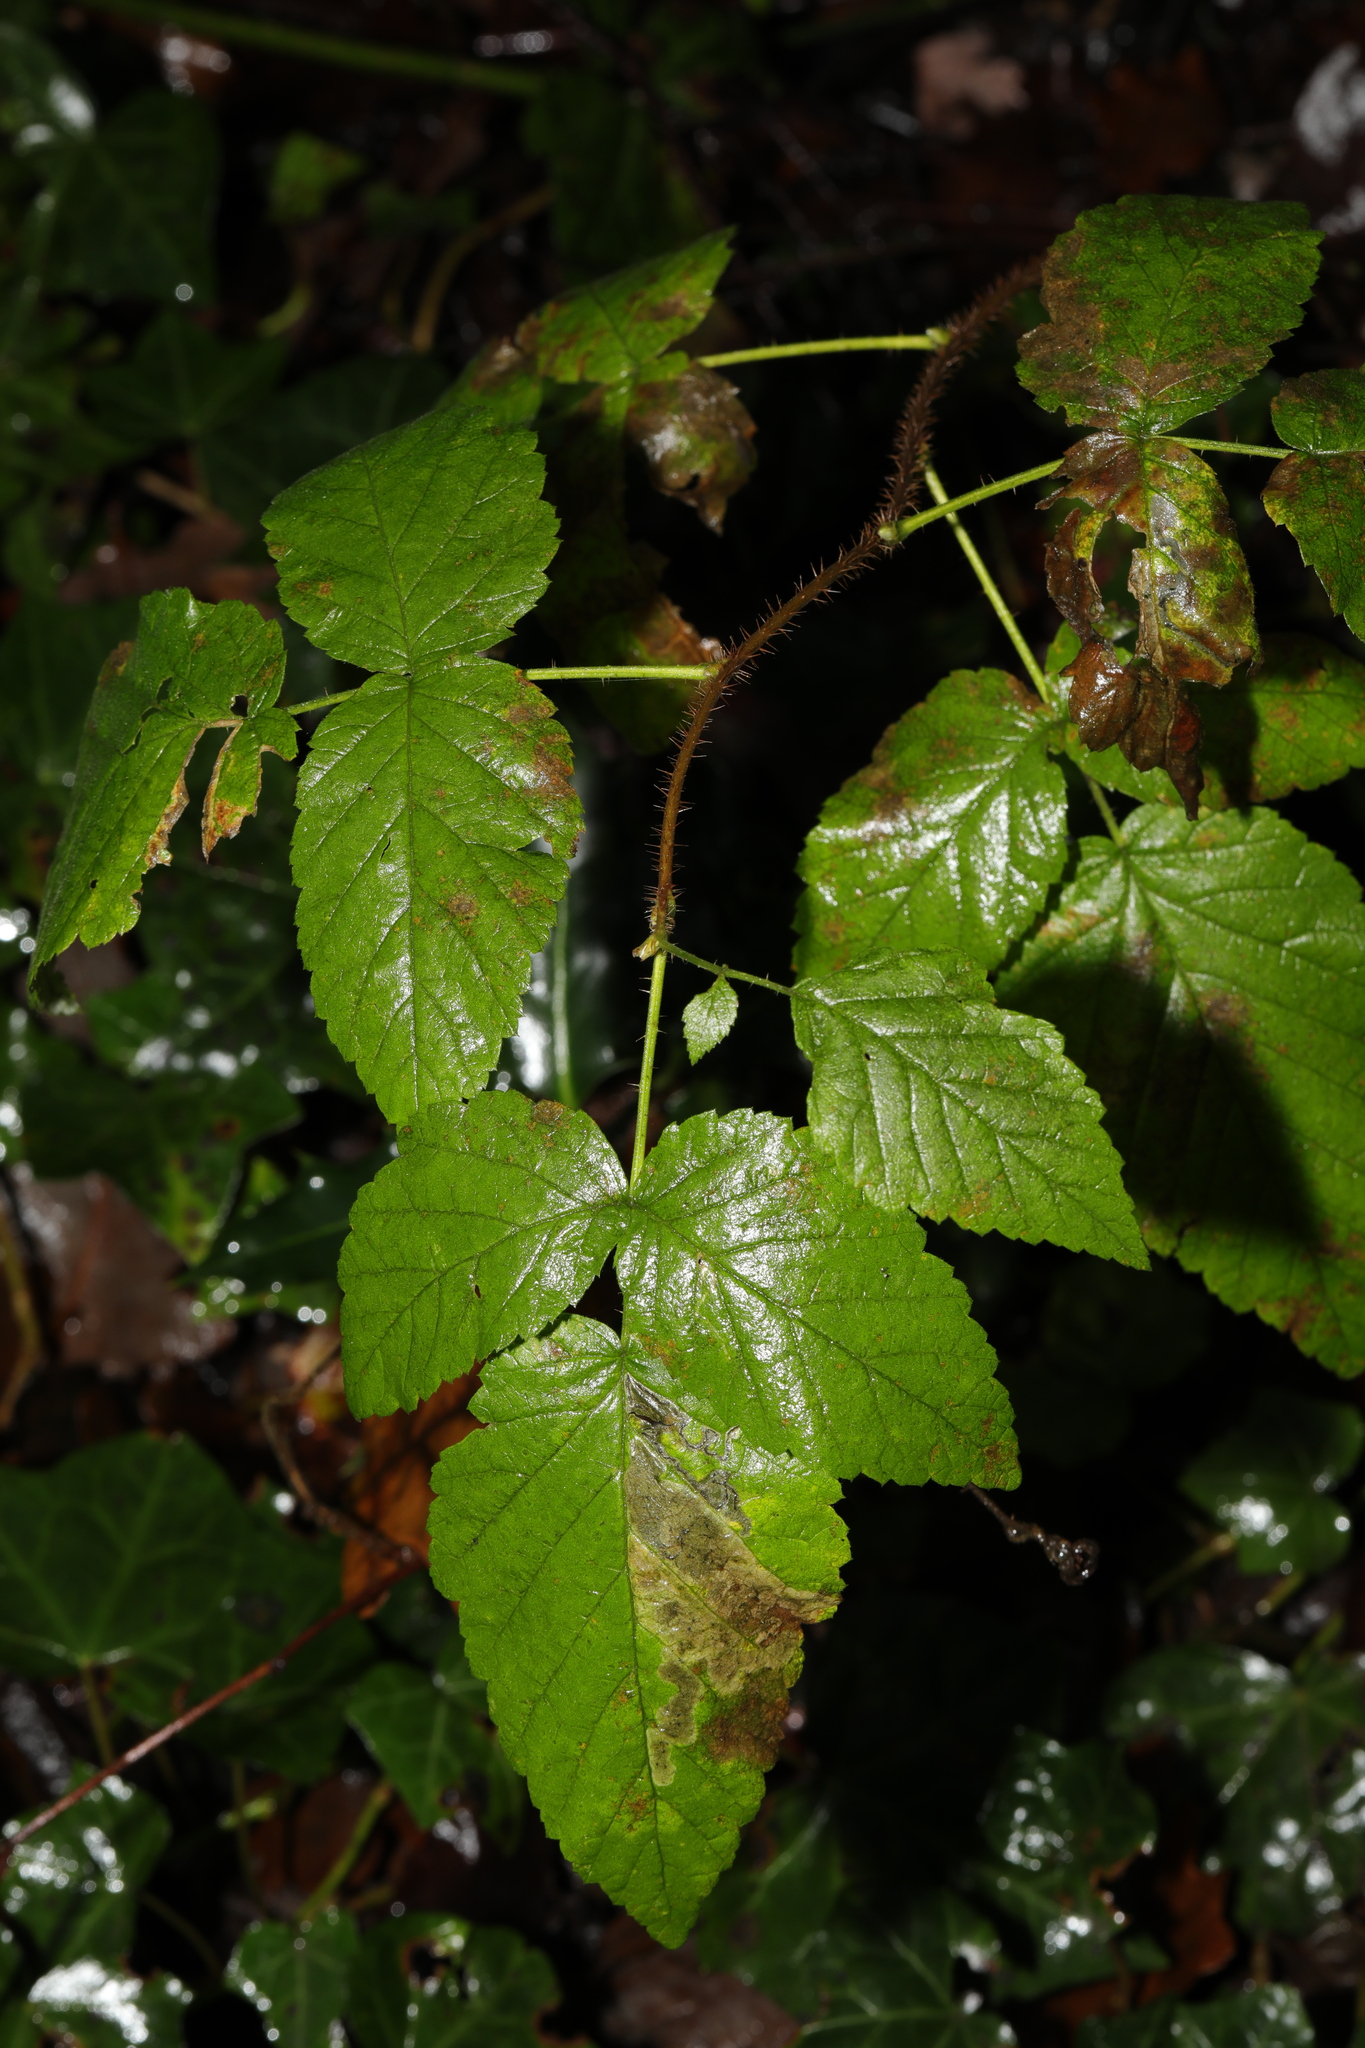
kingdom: Plantae
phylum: Tracheophyta
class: Magnoliopsida
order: Rosales
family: Rosaceae
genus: Rubus
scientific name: Rubus idaeus
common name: Raspberry
